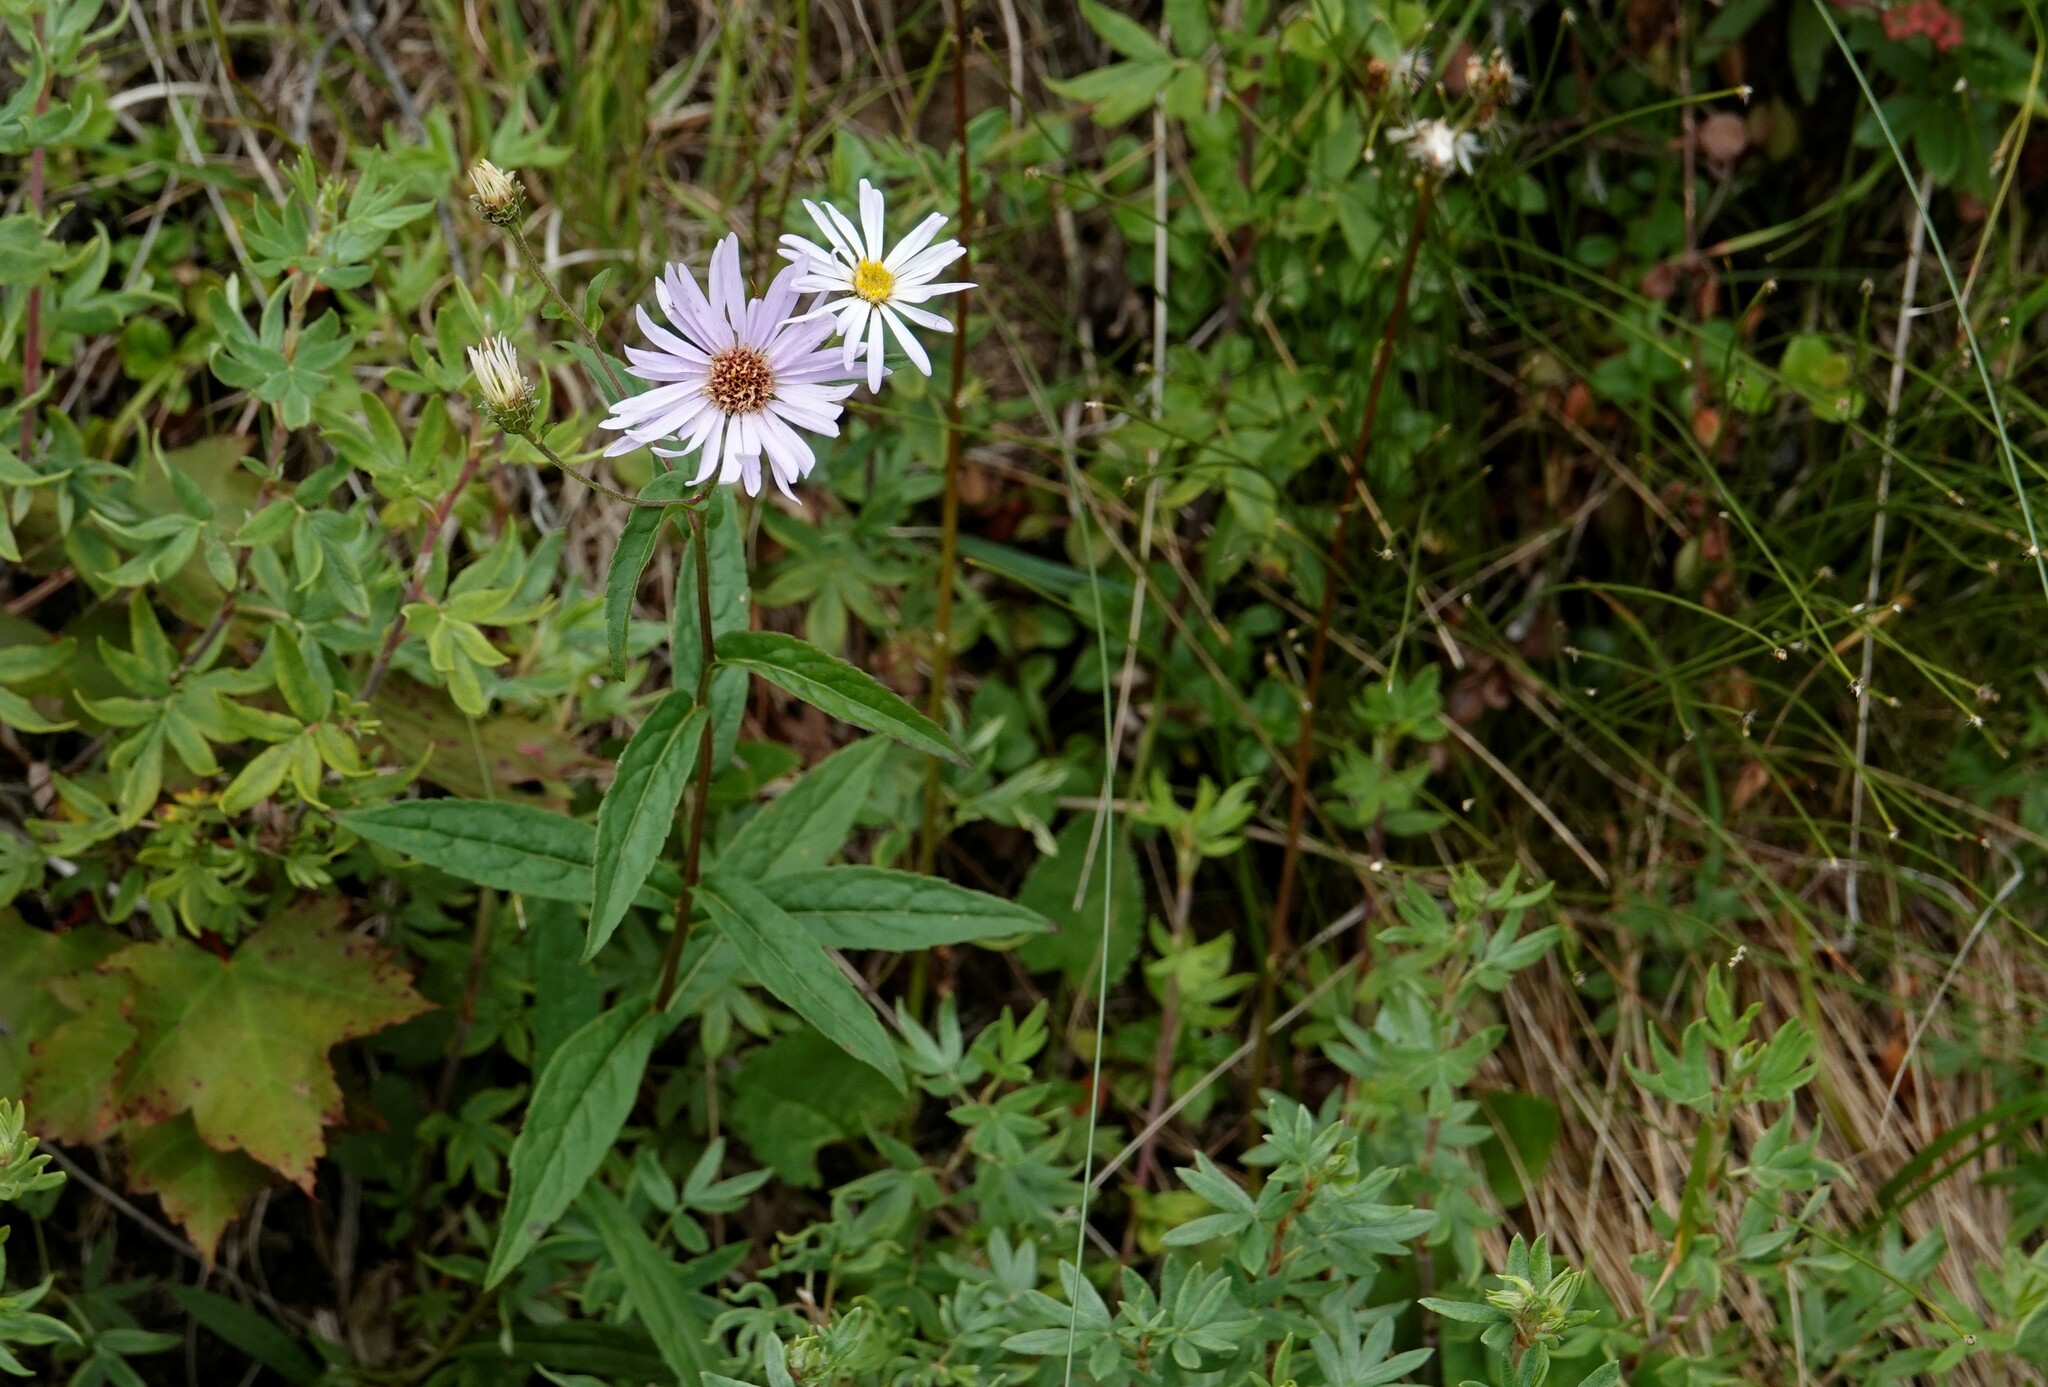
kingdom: Plantae
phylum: Tracheophyta
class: Magnoliopsida
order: Asterales
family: Asteraceae
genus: Eurybia
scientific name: Eurybia radula
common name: Low rough aster
